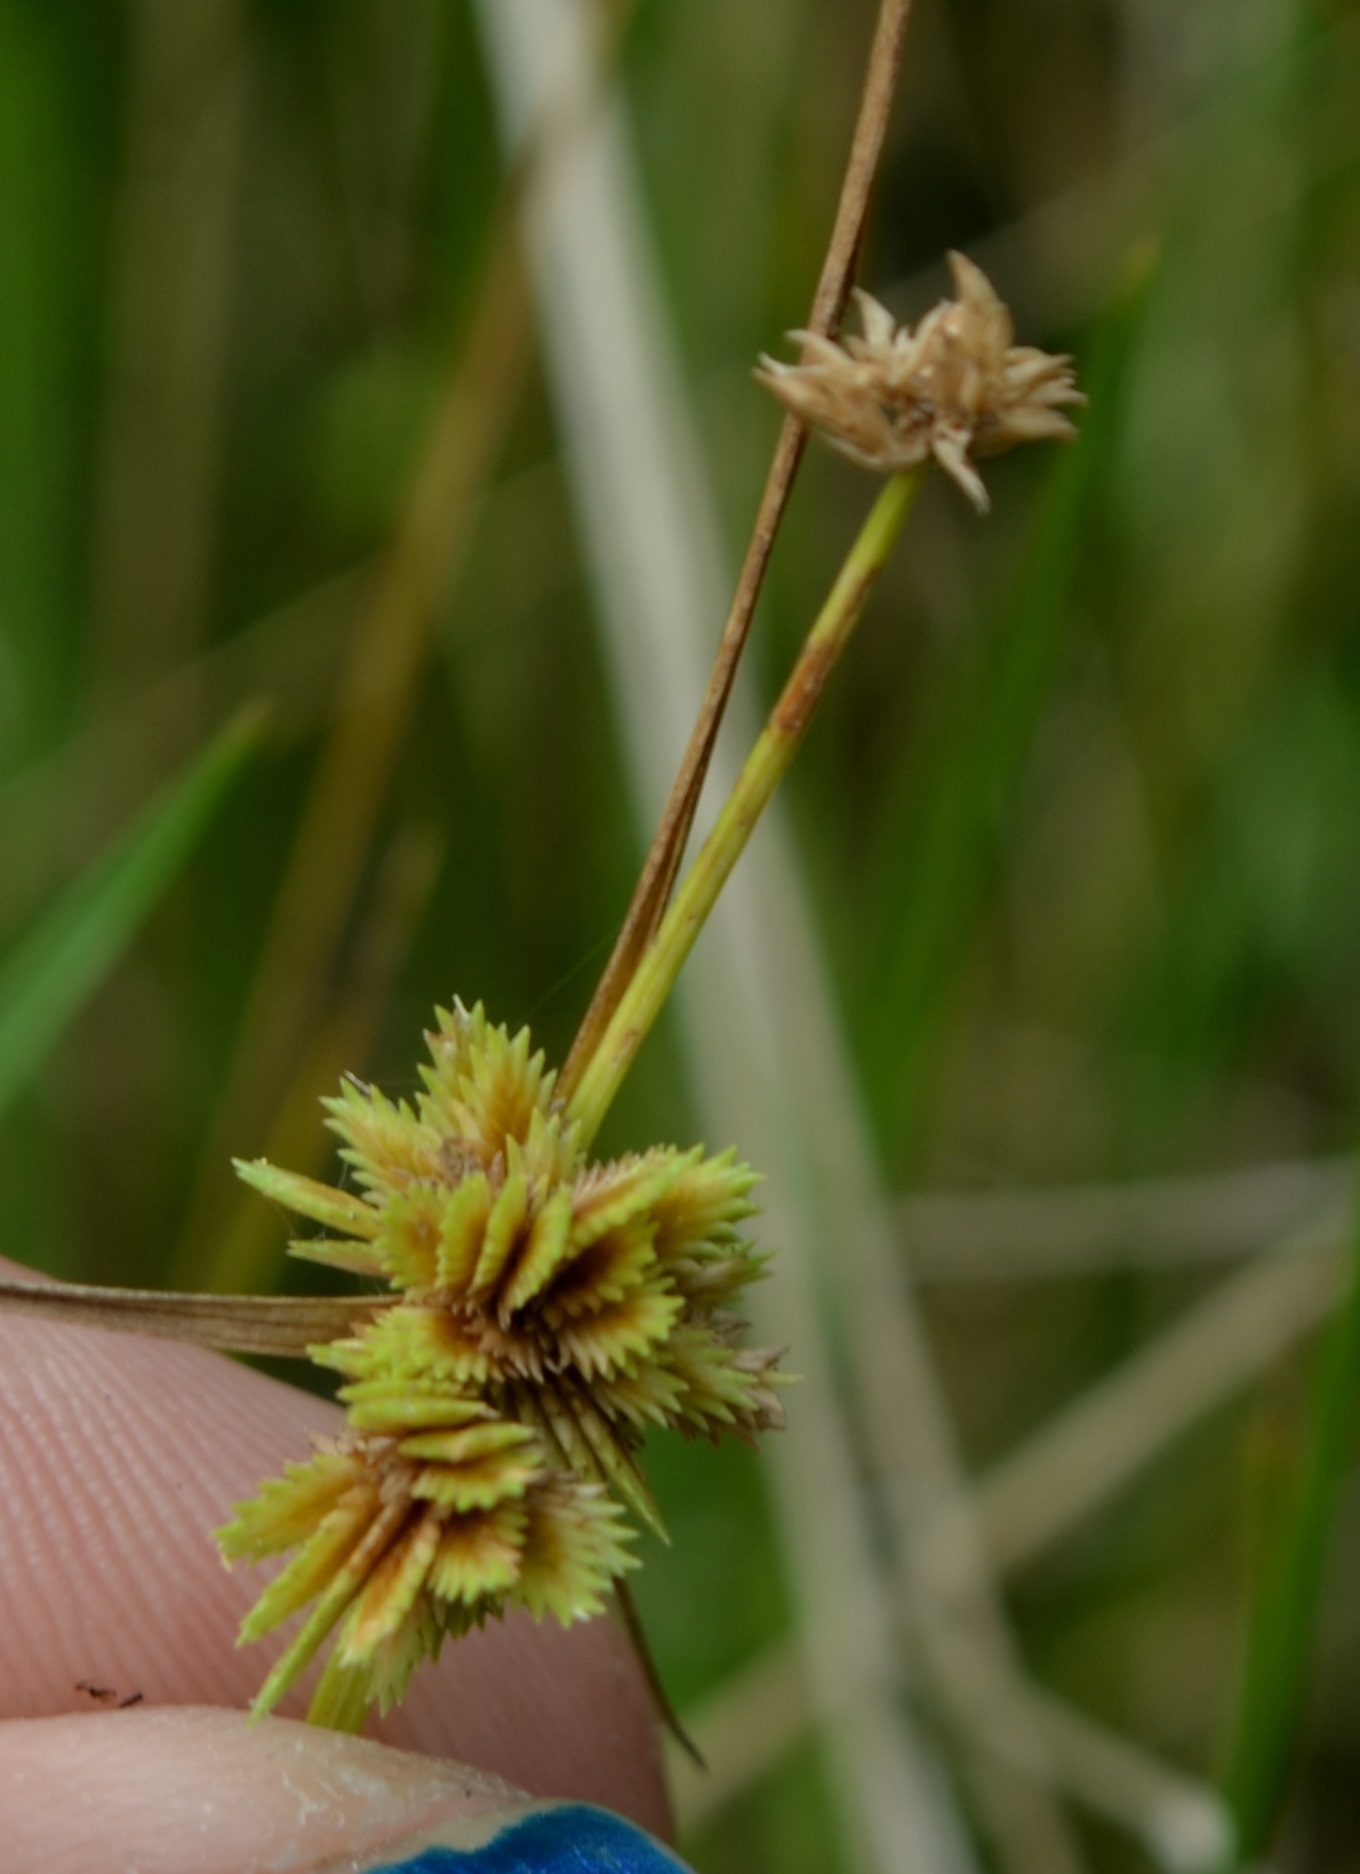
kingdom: Plantae
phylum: Tracheophyta
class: Liliopsida
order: Poales
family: Cyperaceae
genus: Cyperus
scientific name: Cyperus acuminatus
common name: Short-pointed cyperus
